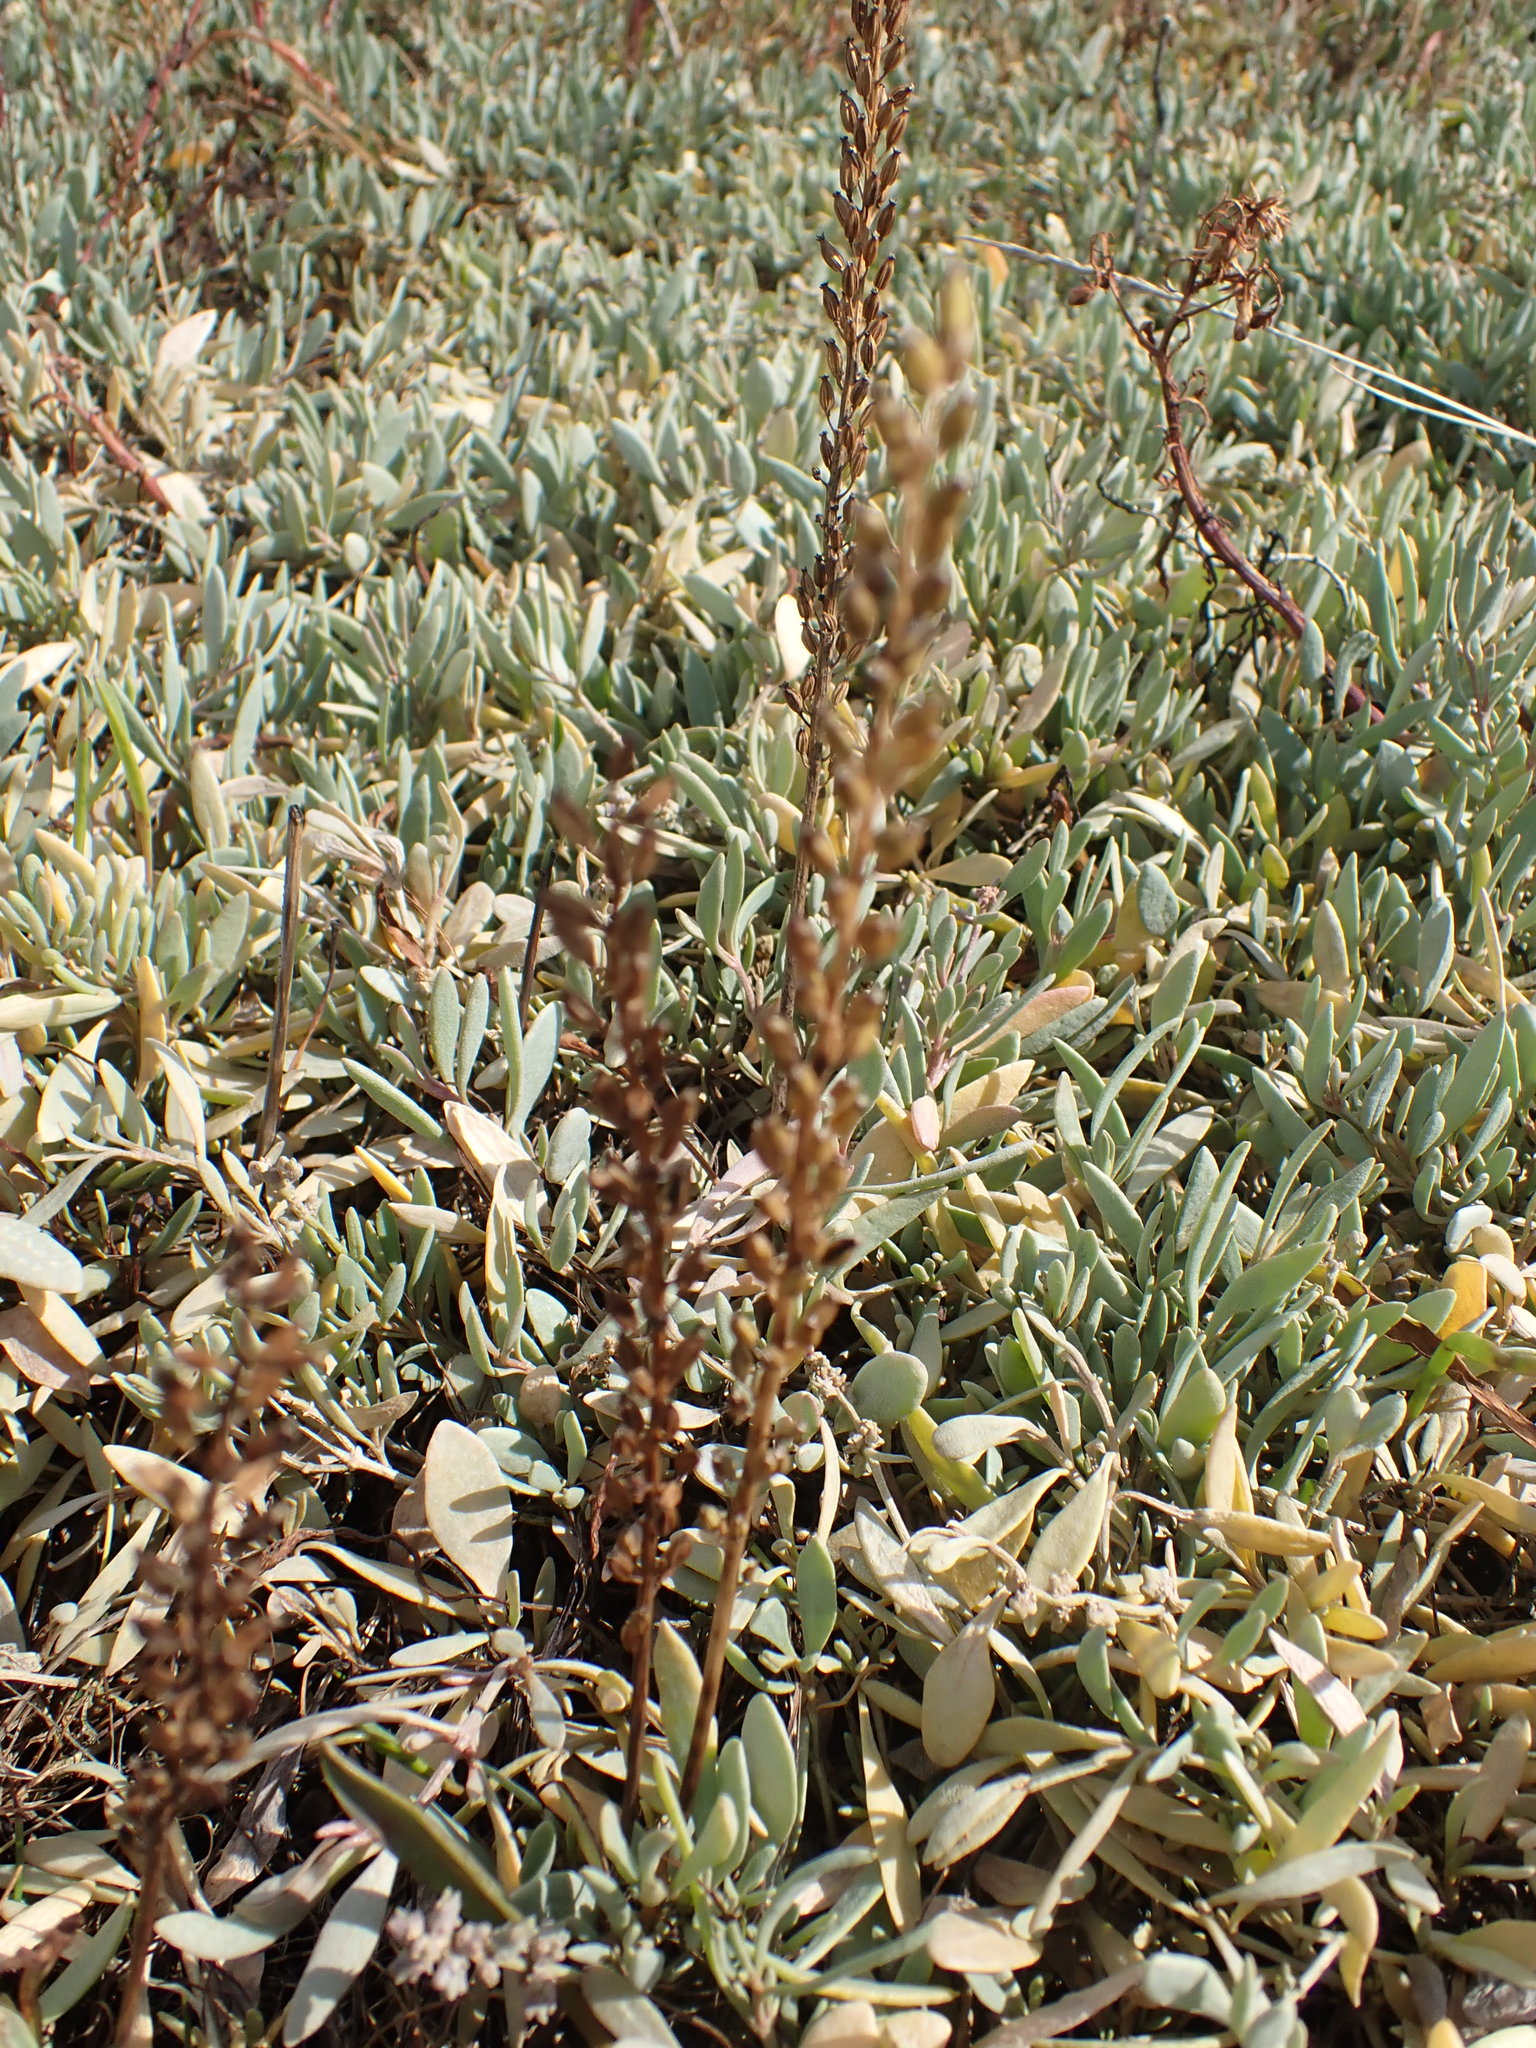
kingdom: Plantae
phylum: Tracheophyta
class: Liliopsida
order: Alismatales
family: Juncaginaceae
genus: Triglochin
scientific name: Triglochin maritima
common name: Sea arrowgrass
